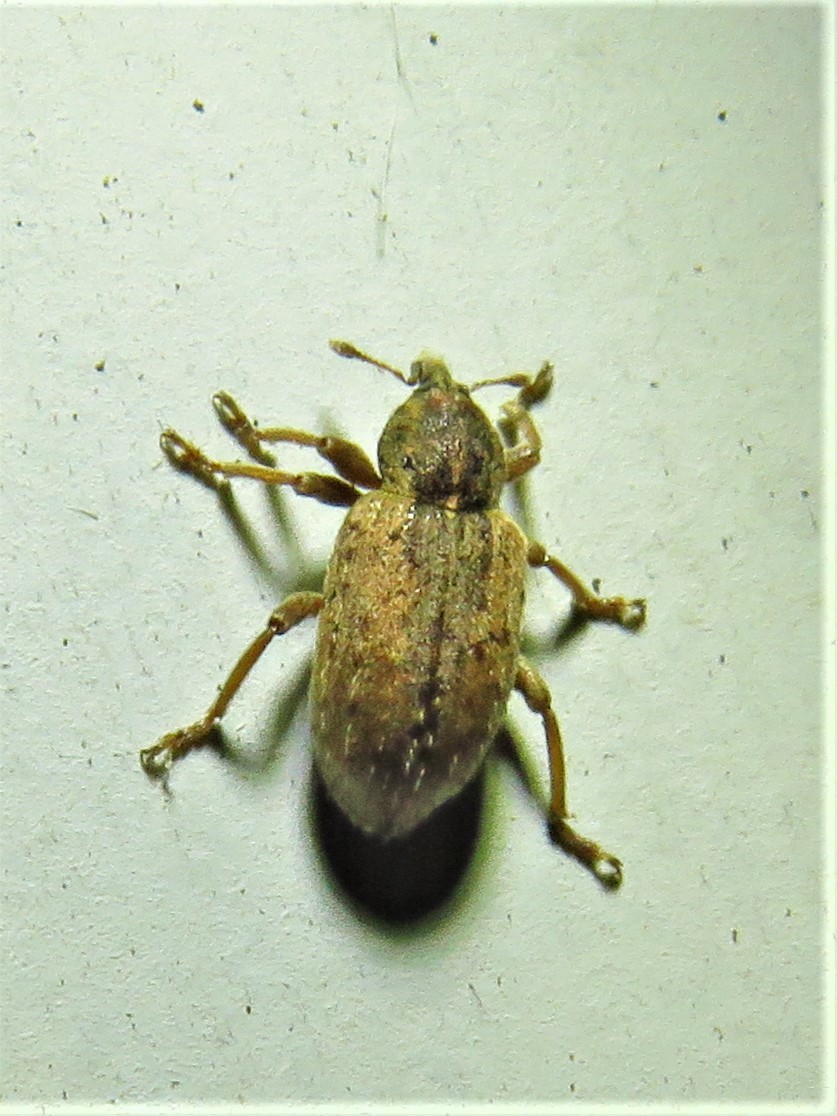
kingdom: Animalia
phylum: Arthropoda
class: Insecta
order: Coleoptera
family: Curculionidae
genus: Hypera
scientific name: Hypera postica
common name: Weevil
